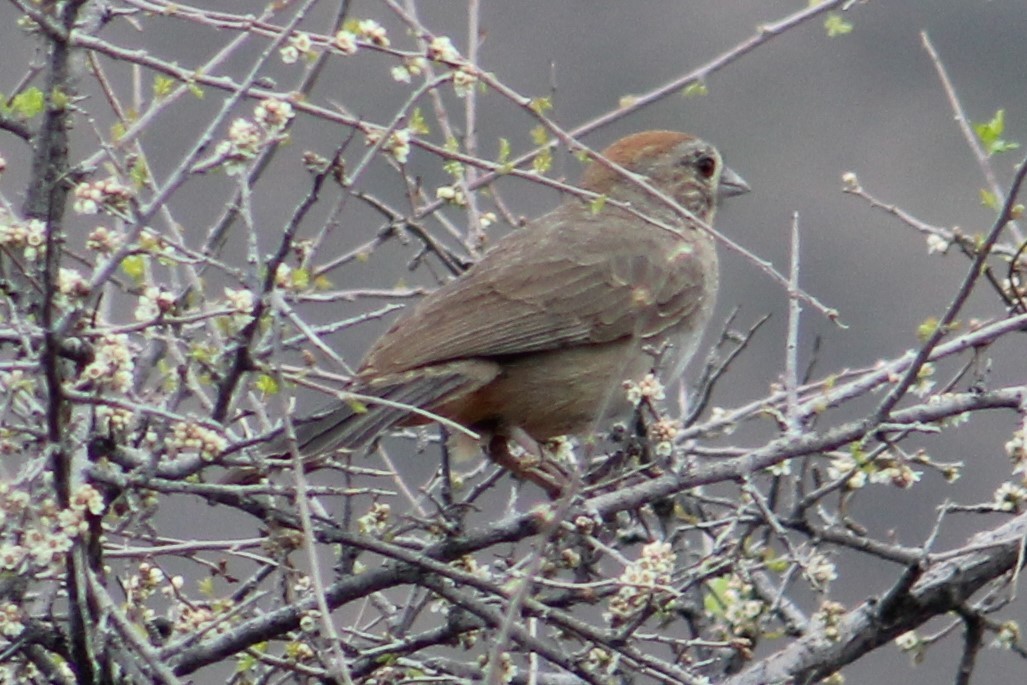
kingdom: Animalia
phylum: Chordata
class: Aves
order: Passeriformes
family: Passerellidae
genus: Melozone
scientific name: Melozone fusca
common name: Canyon towhee
